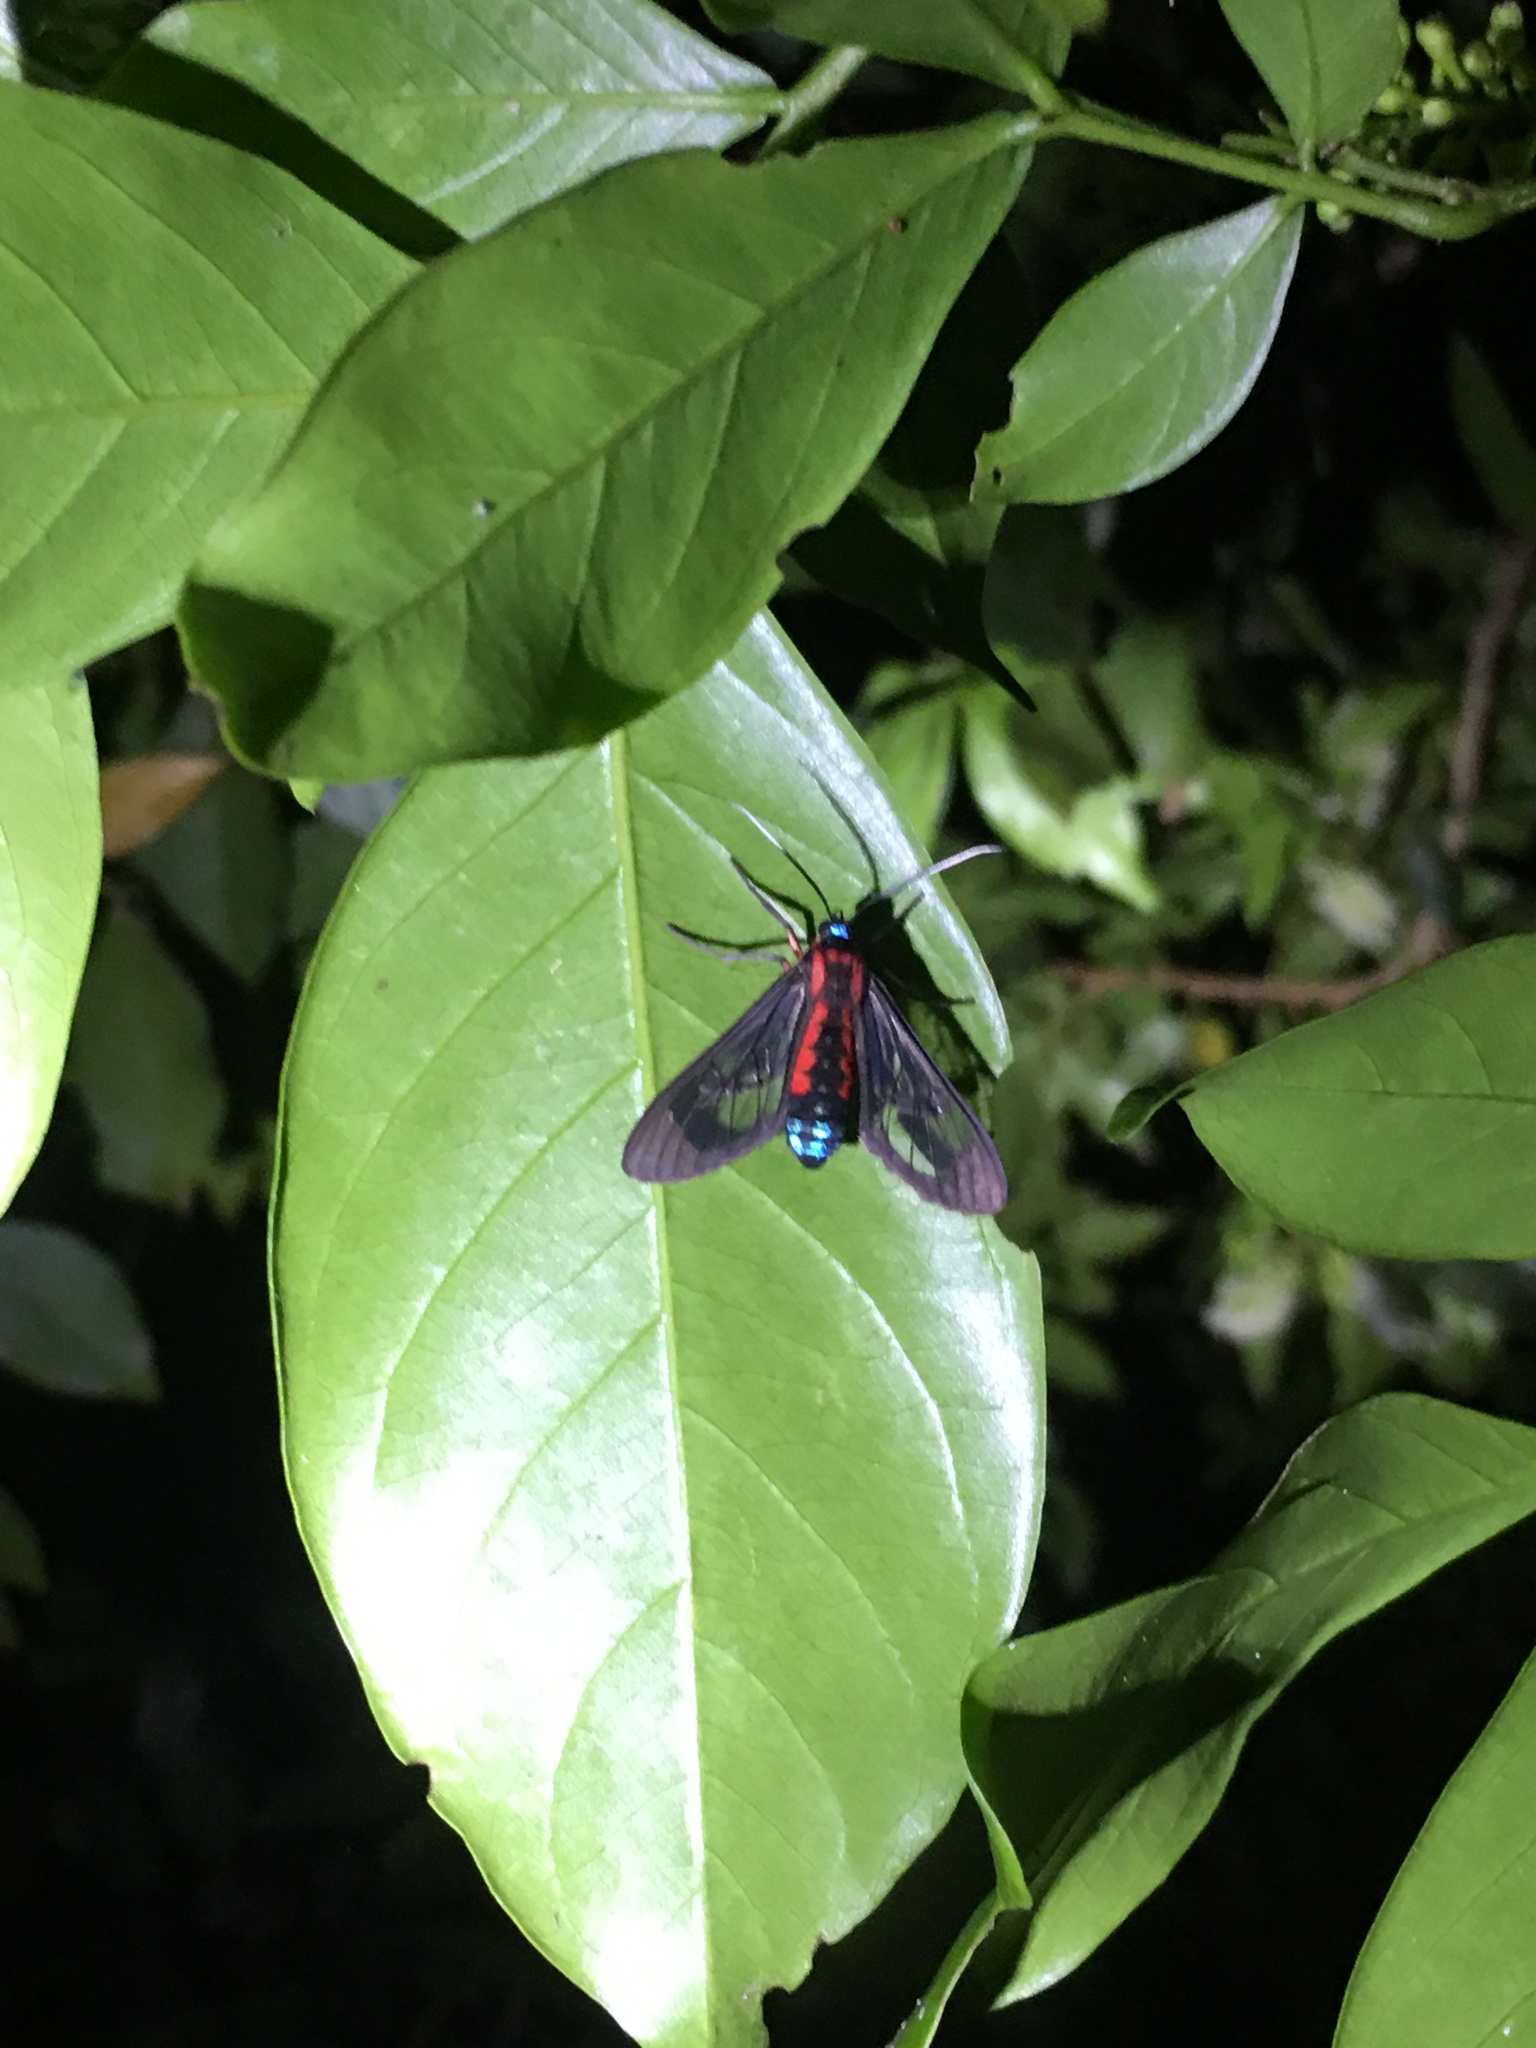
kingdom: Animalia
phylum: Arthropoda
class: Insecta
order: Lepidoptera
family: Erebidae
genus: Cosmosoma
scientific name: Cosmosoma auge
